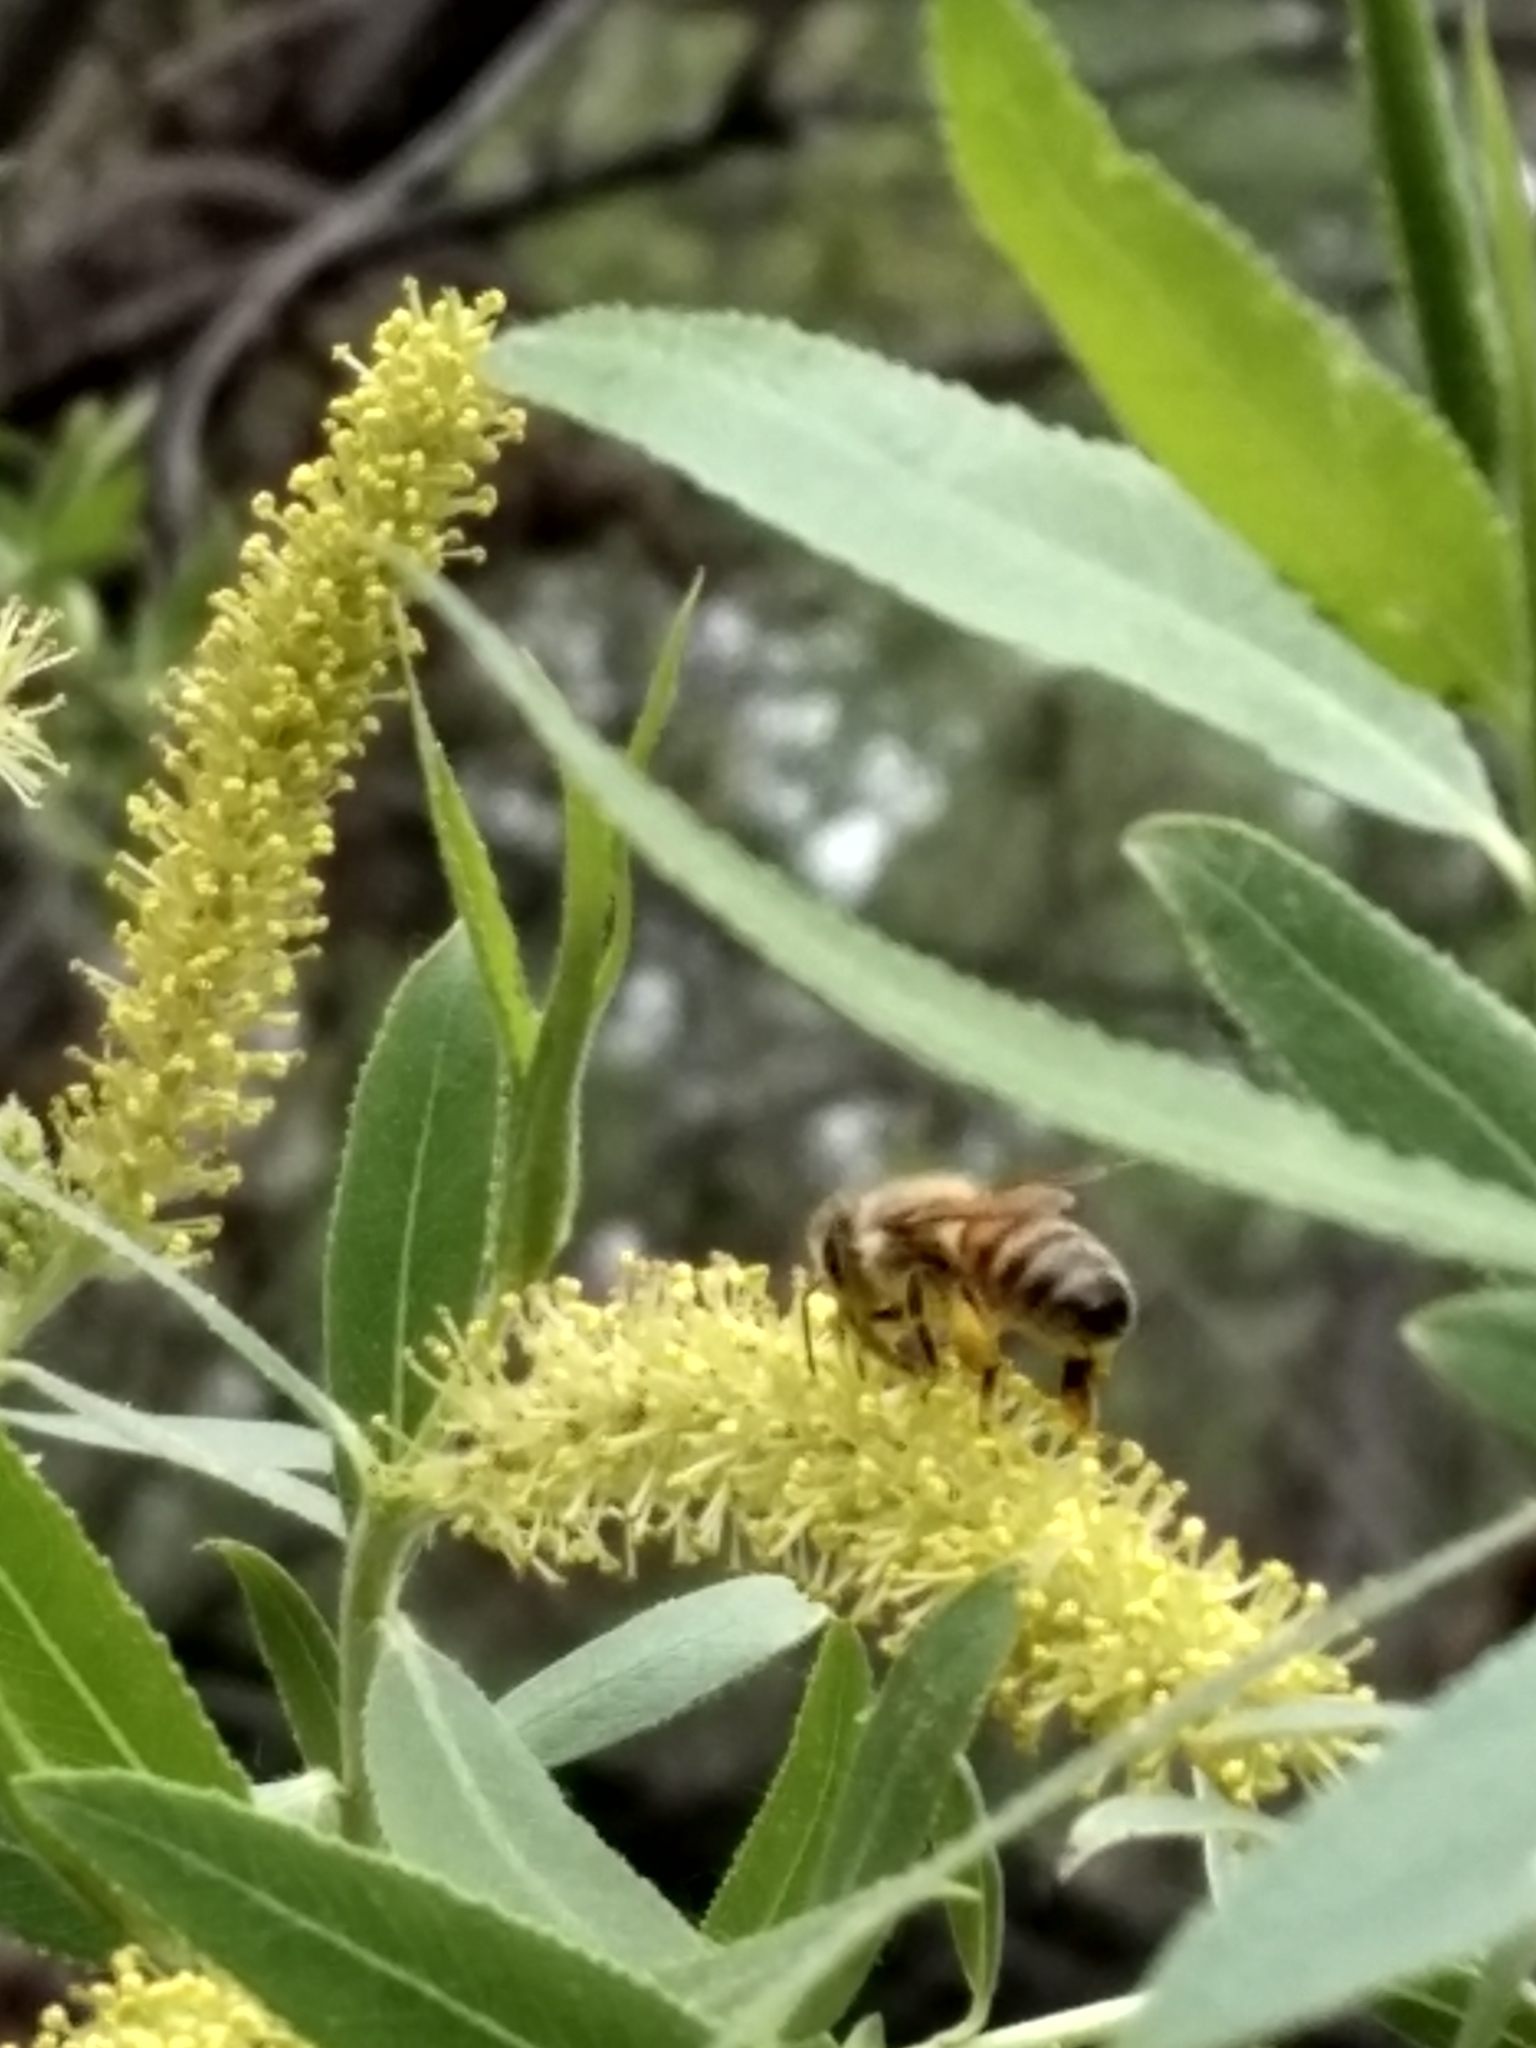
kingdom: Animalia
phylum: Arthropoda
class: Insecta
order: Hymenoptera
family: Apidae
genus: Apis
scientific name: Apis mellifera
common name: Honey bee
